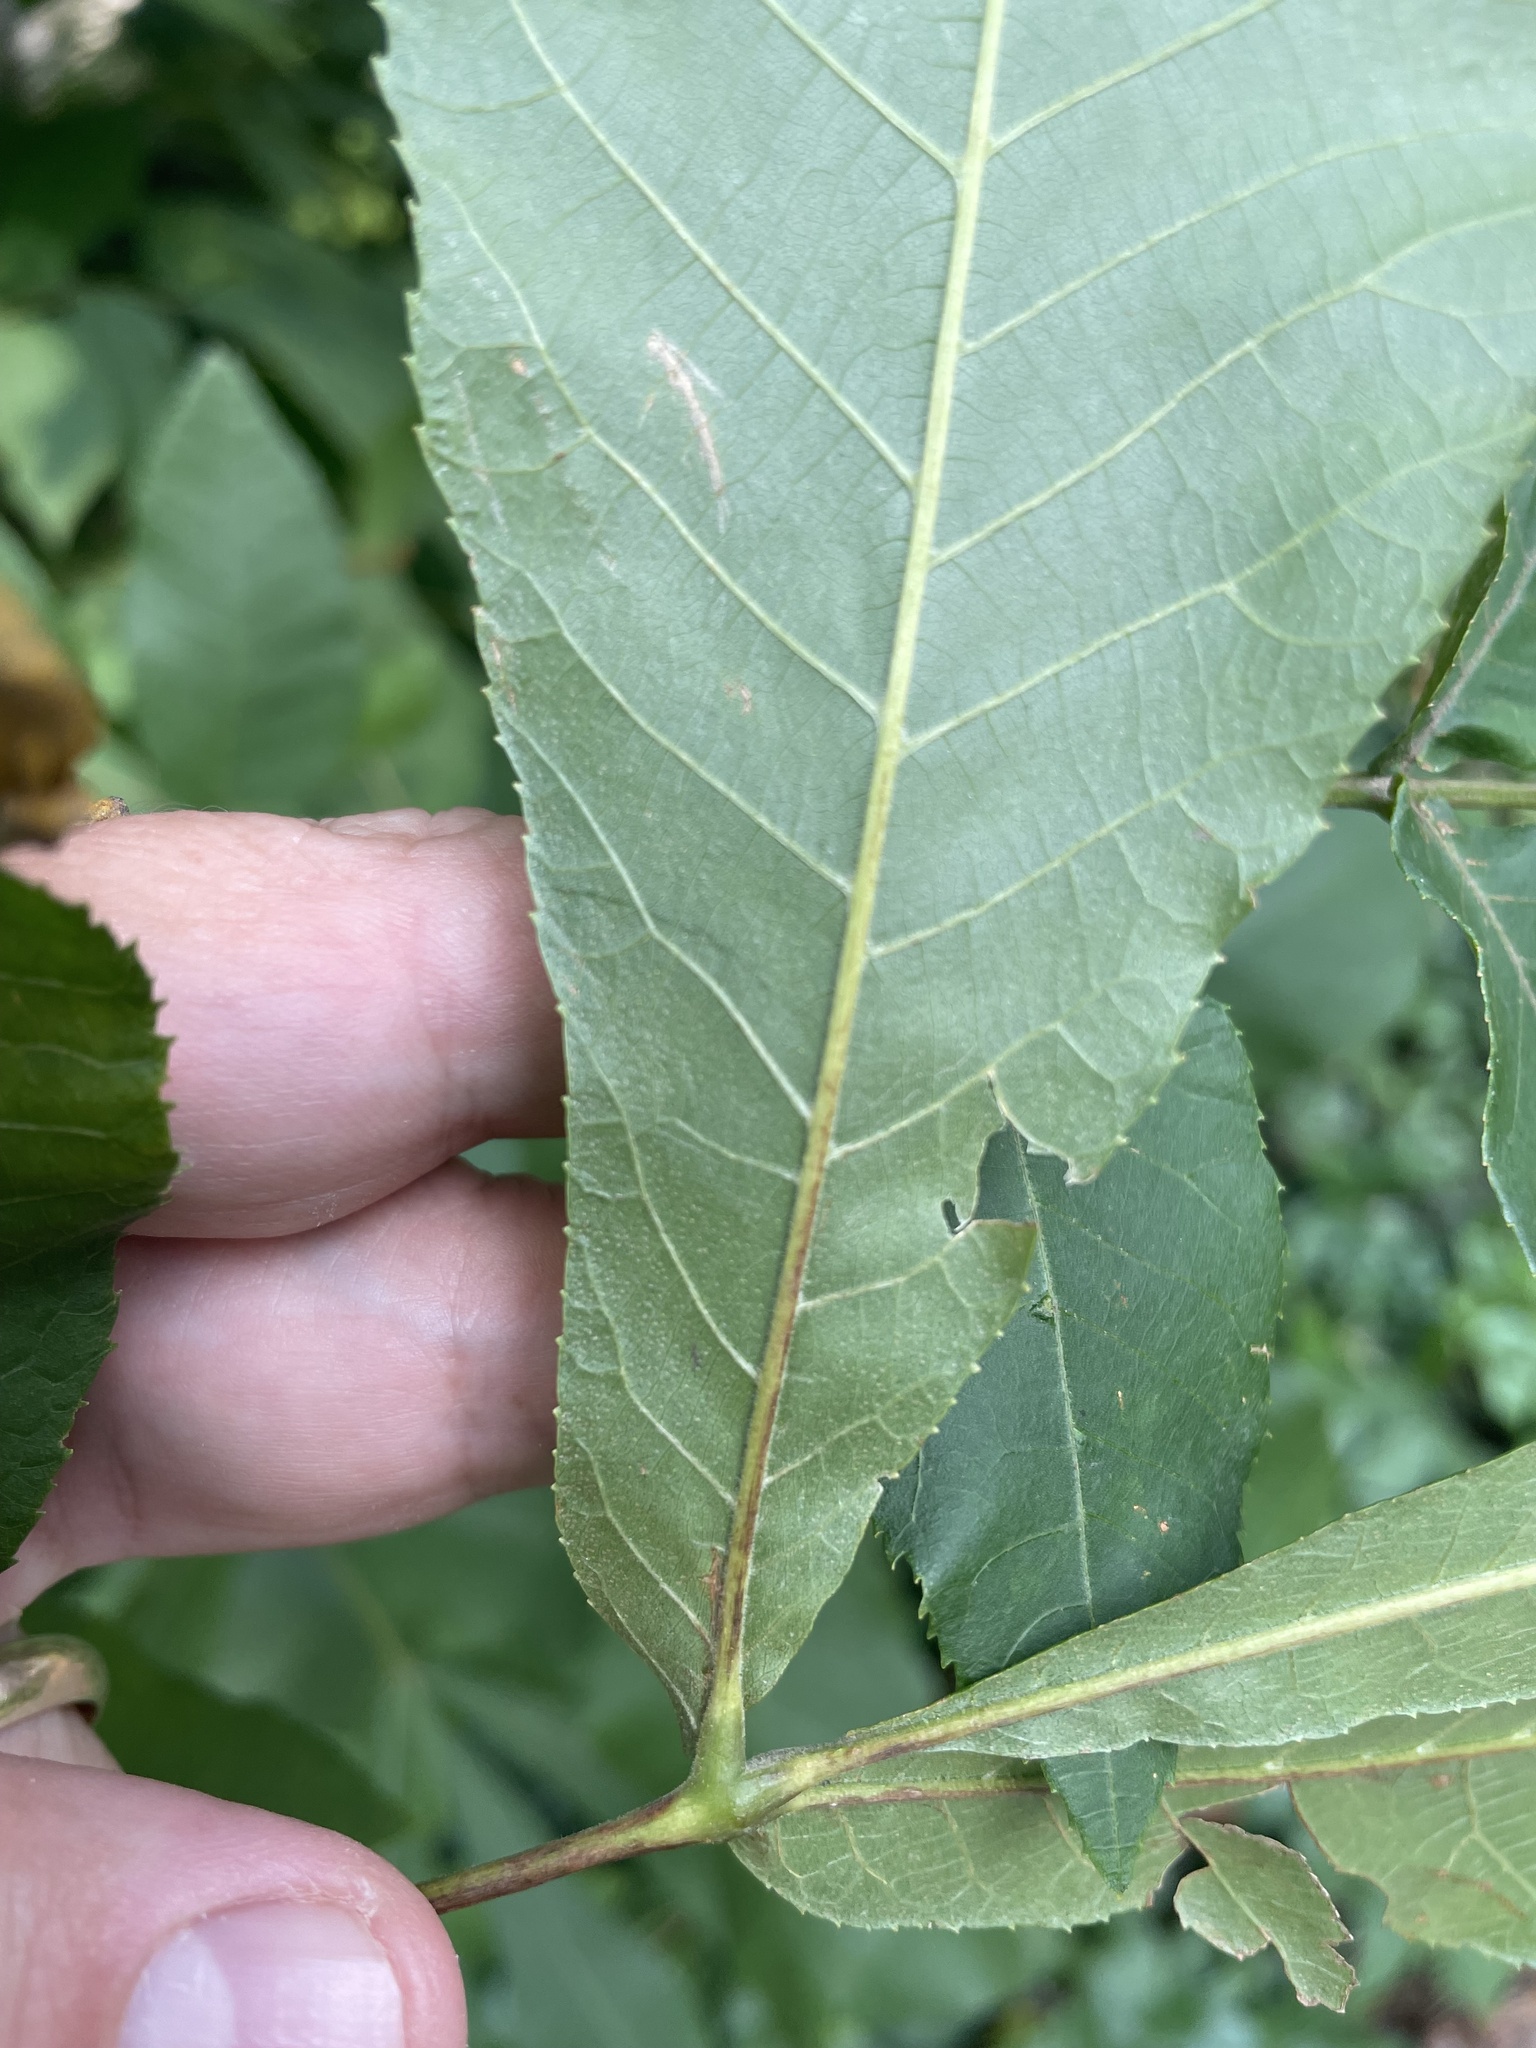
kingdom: Plantae
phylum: Tracheophyta
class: Magnoliopsida
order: Fagales
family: Juglandaceae
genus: Carya
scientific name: Carya cordiformis
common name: Bitternut hickory
